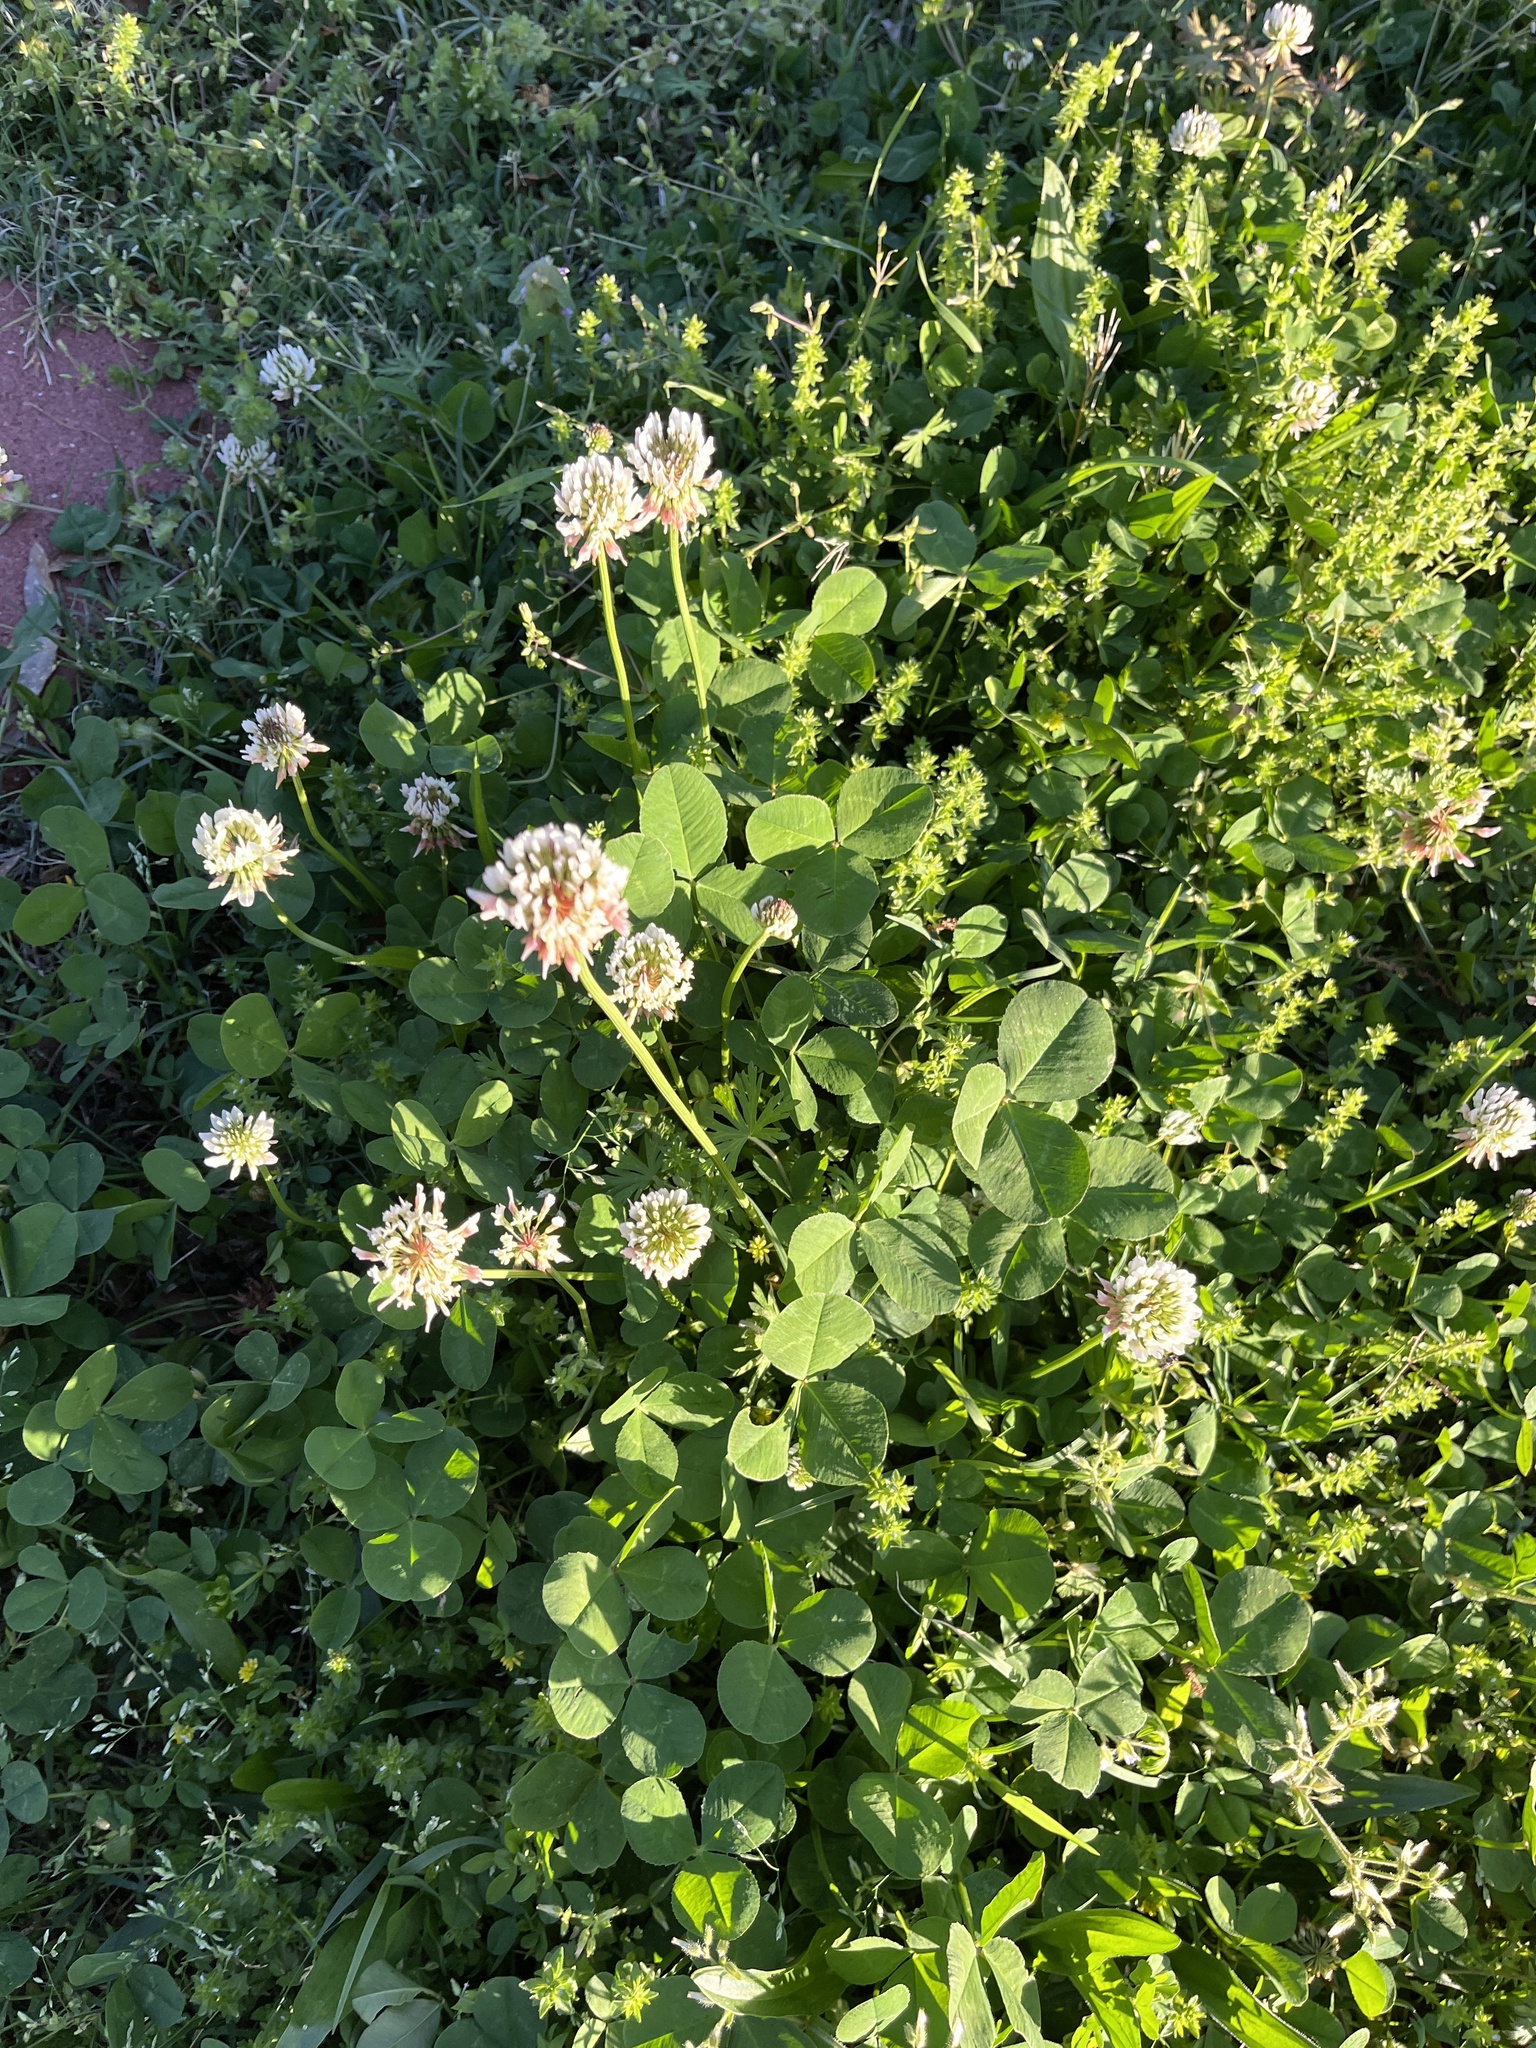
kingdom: Plantae
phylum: Tracheophyta
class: Magnoliopsida
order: Fabales
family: Fabaceae
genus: Trifolium
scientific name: Trifolium repens
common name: White clover
